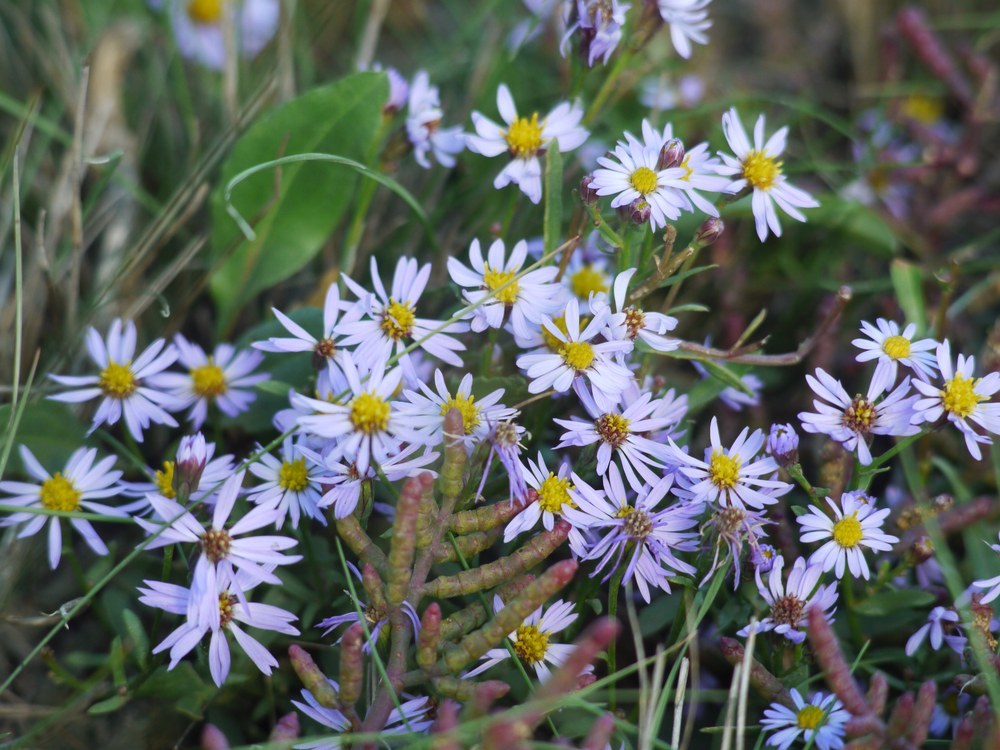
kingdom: Plantae
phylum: Tracheophyta
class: Magnoliopsida
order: Asterales
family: Asteraceae
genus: Tripolium
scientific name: Tripolium pannonicum
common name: Sea aster
